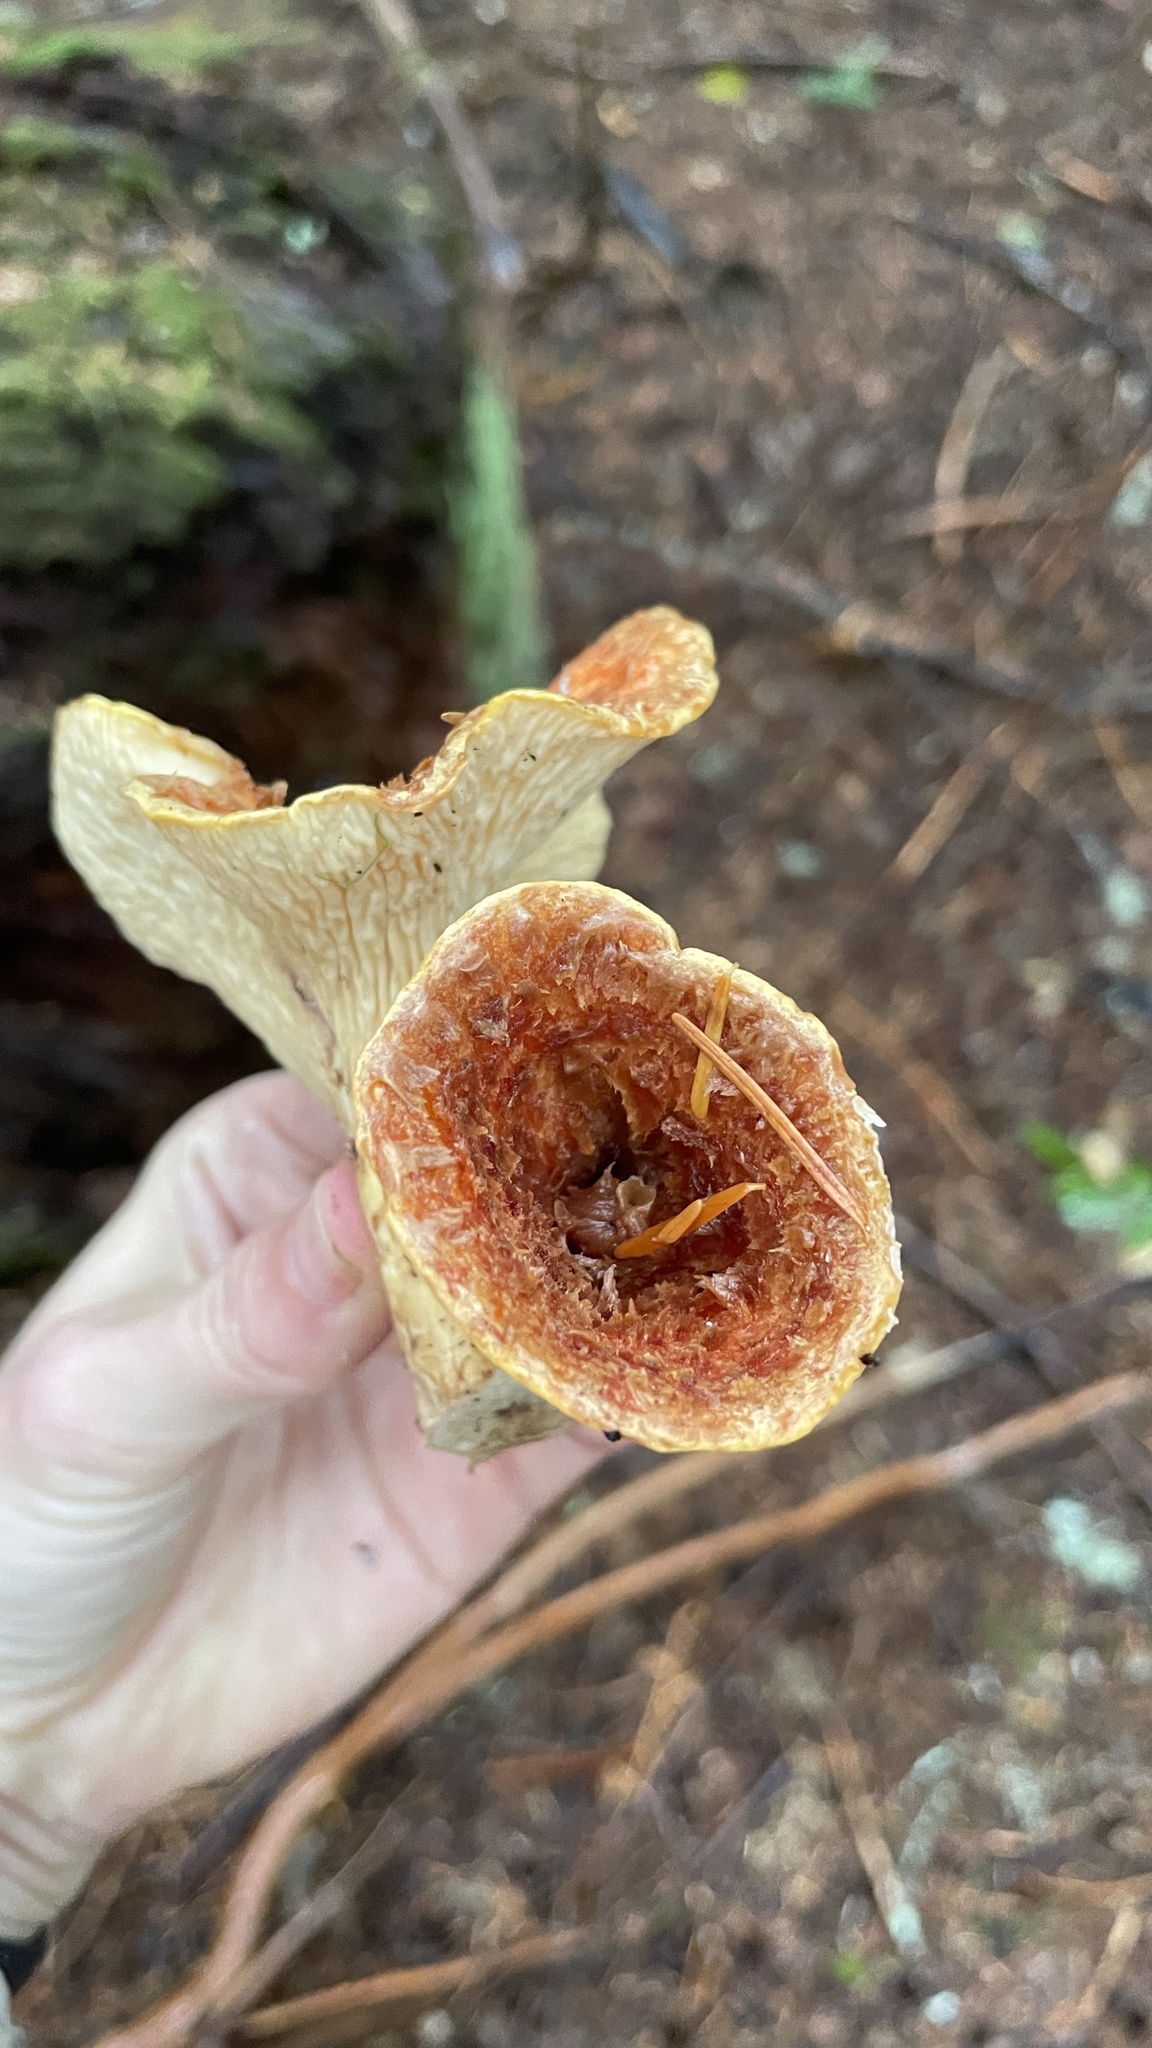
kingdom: Fungi
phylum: Basidiomycota
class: Agaricomycetes
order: Gomphales
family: Gomphaceae
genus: Turbinellus
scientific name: Turbinellus floccosus
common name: Scaly chanterelle
